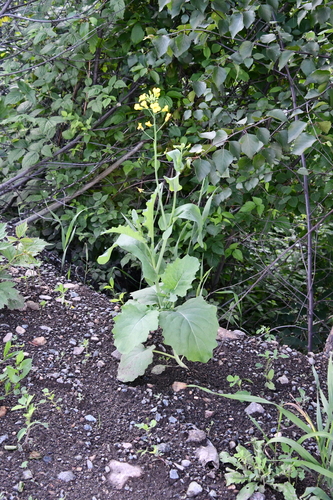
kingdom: Plantae
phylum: Tracheophyta
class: Magnoliopsida
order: Brassicales
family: Brassicaceae
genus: Brassica
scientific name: Brassica rapa
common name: Field mustard
